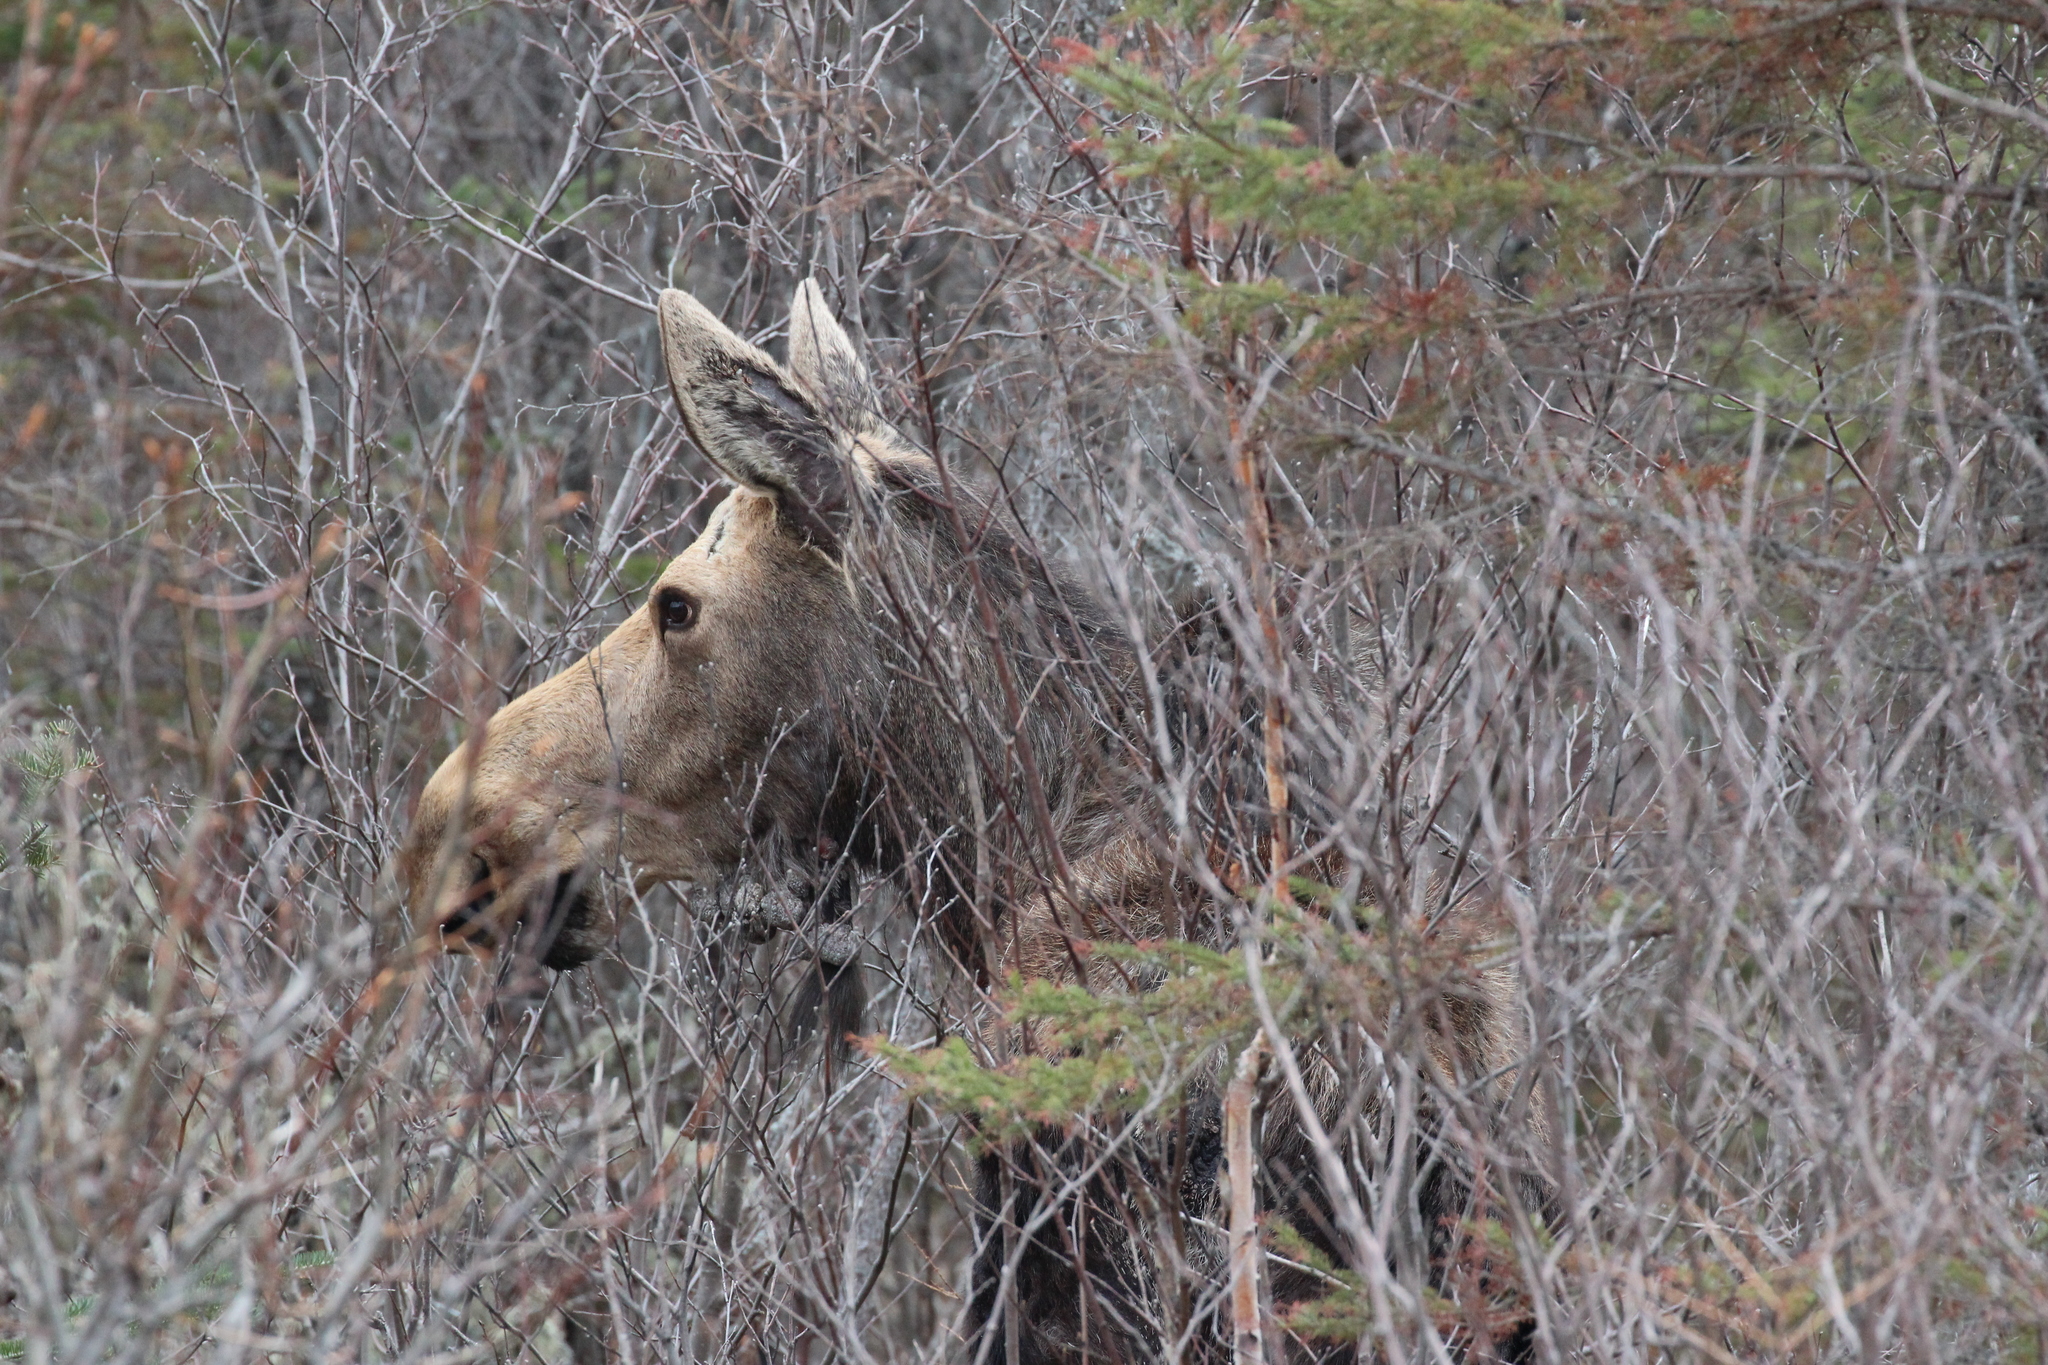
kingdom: Animalia
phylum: Chordata
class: Mammalia
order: Artiodactyla
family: Cervidae
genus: Alces
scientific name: Alces alces
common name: Moose
